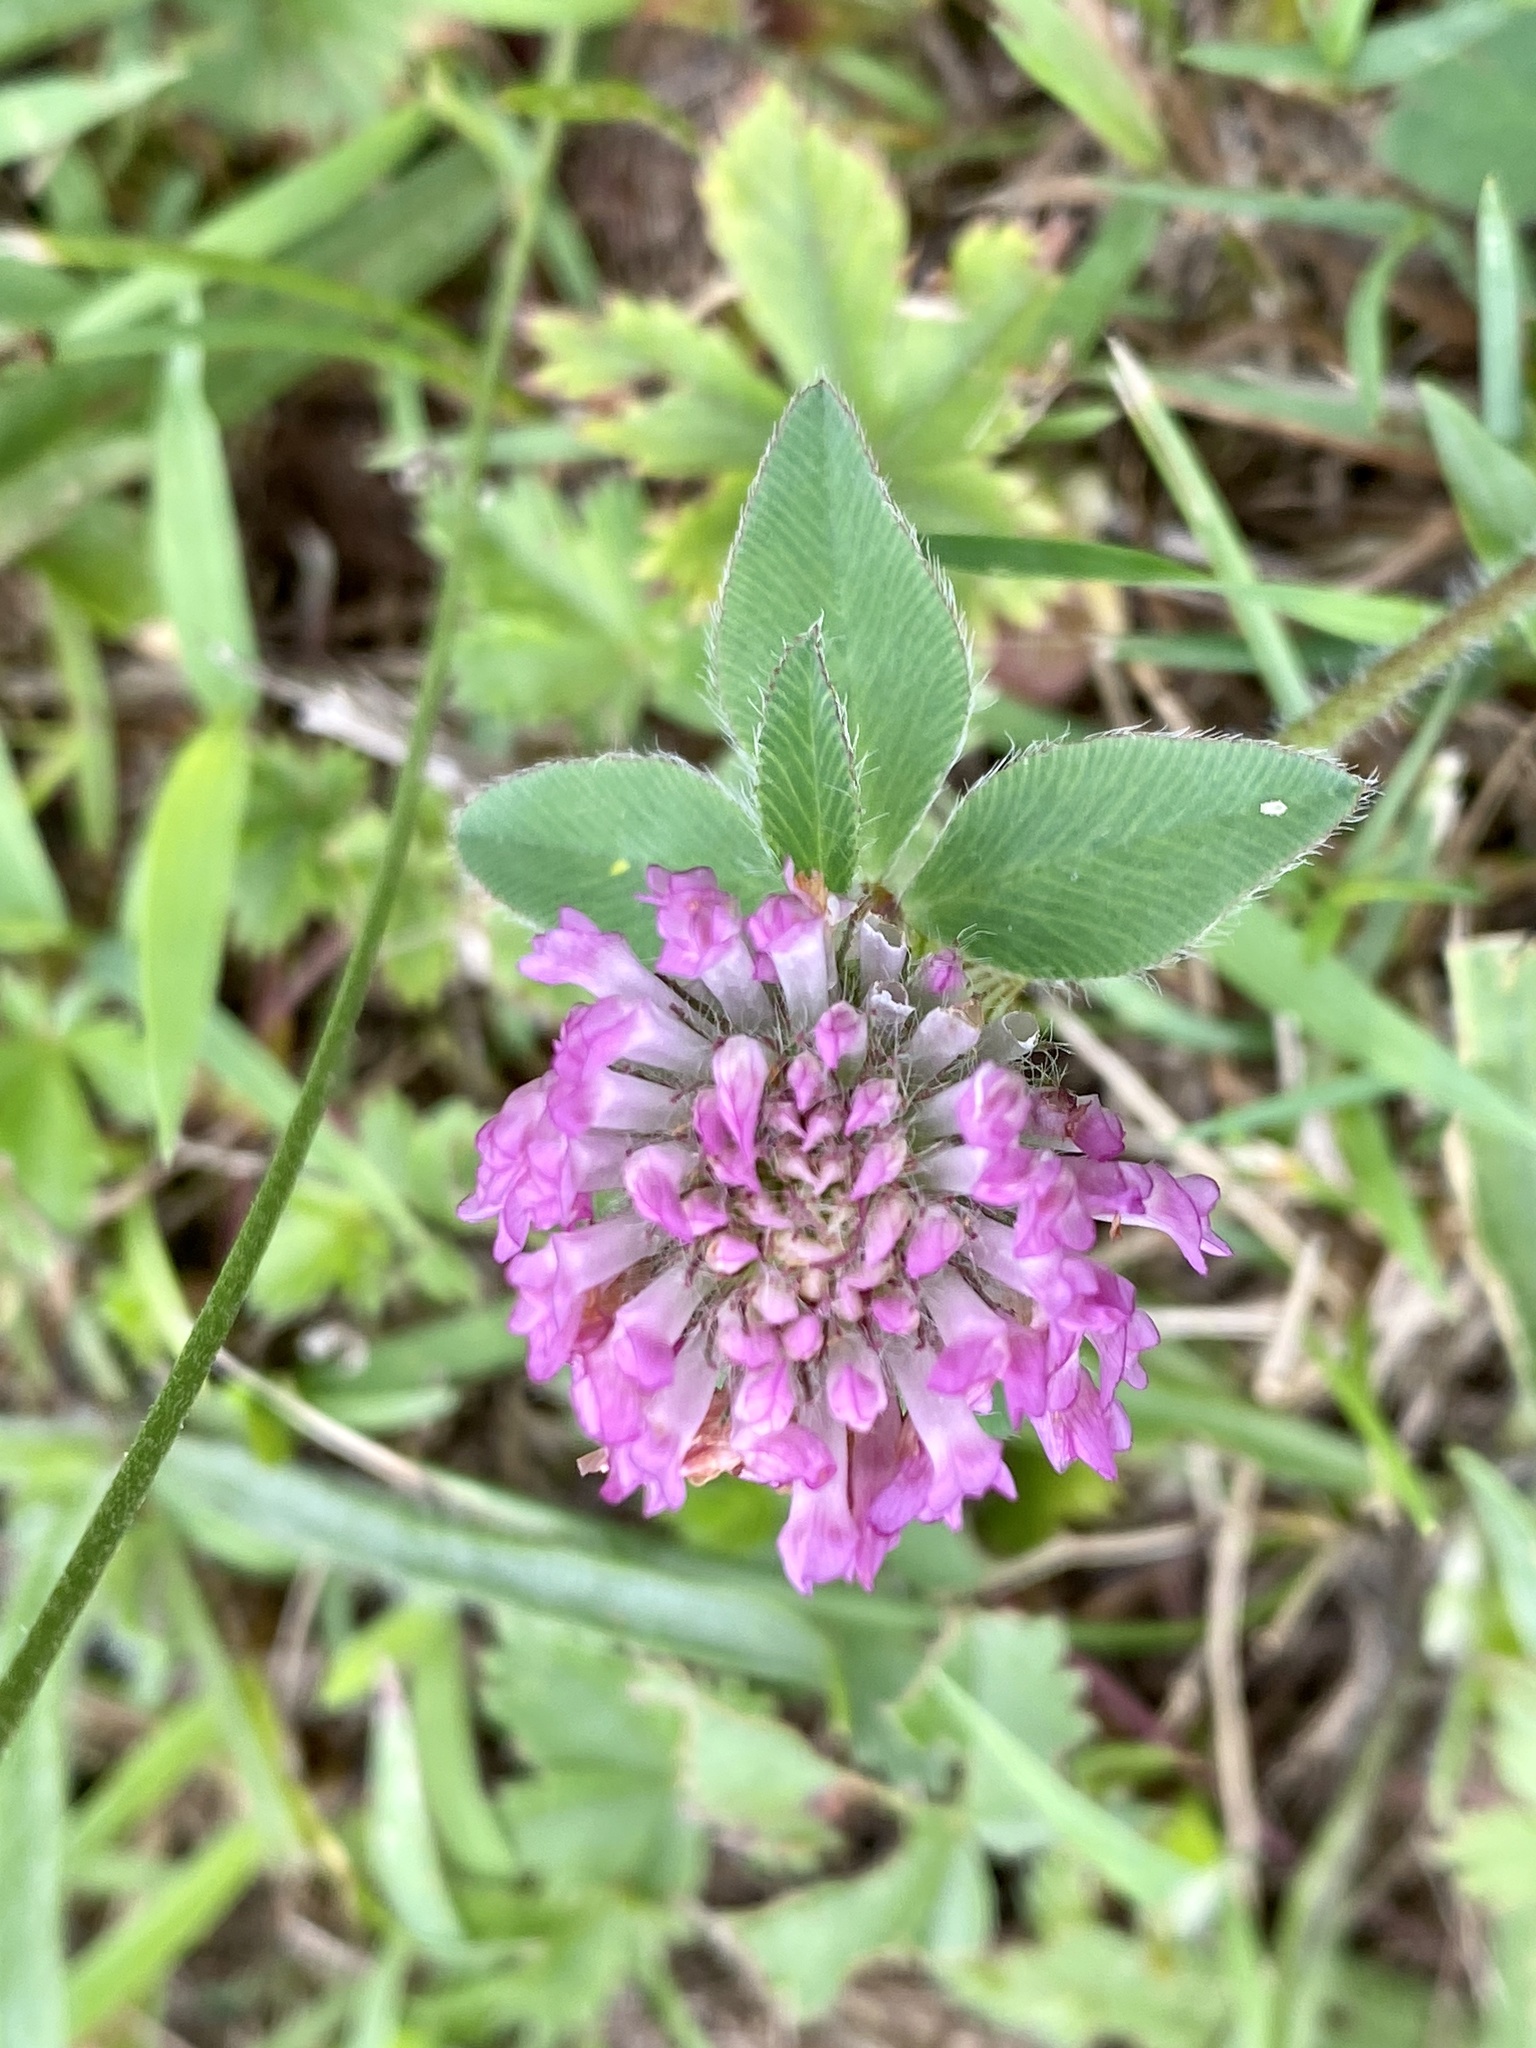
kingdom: Plantae
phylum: Tracheophyta
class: Magnoliopsida
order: Fabales
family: Fabaceae
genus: Trifolium
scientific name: Trifolium pratense
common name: Red clover
